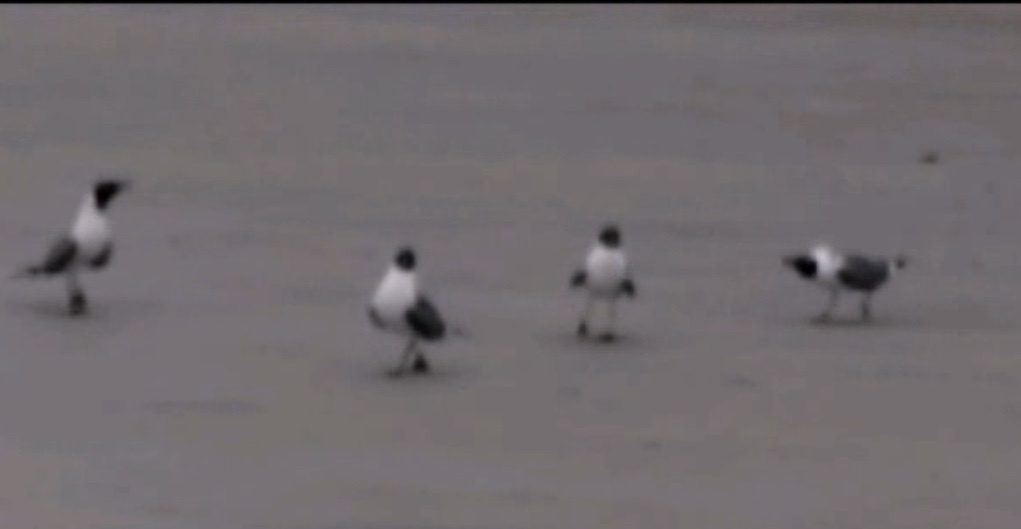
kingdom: Animalia
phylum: Chordata
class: Aves
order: Charadriiformes
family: Laridae
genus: Leucophaeus
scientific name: Leucophaeus atricilla
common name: Laughing gull
